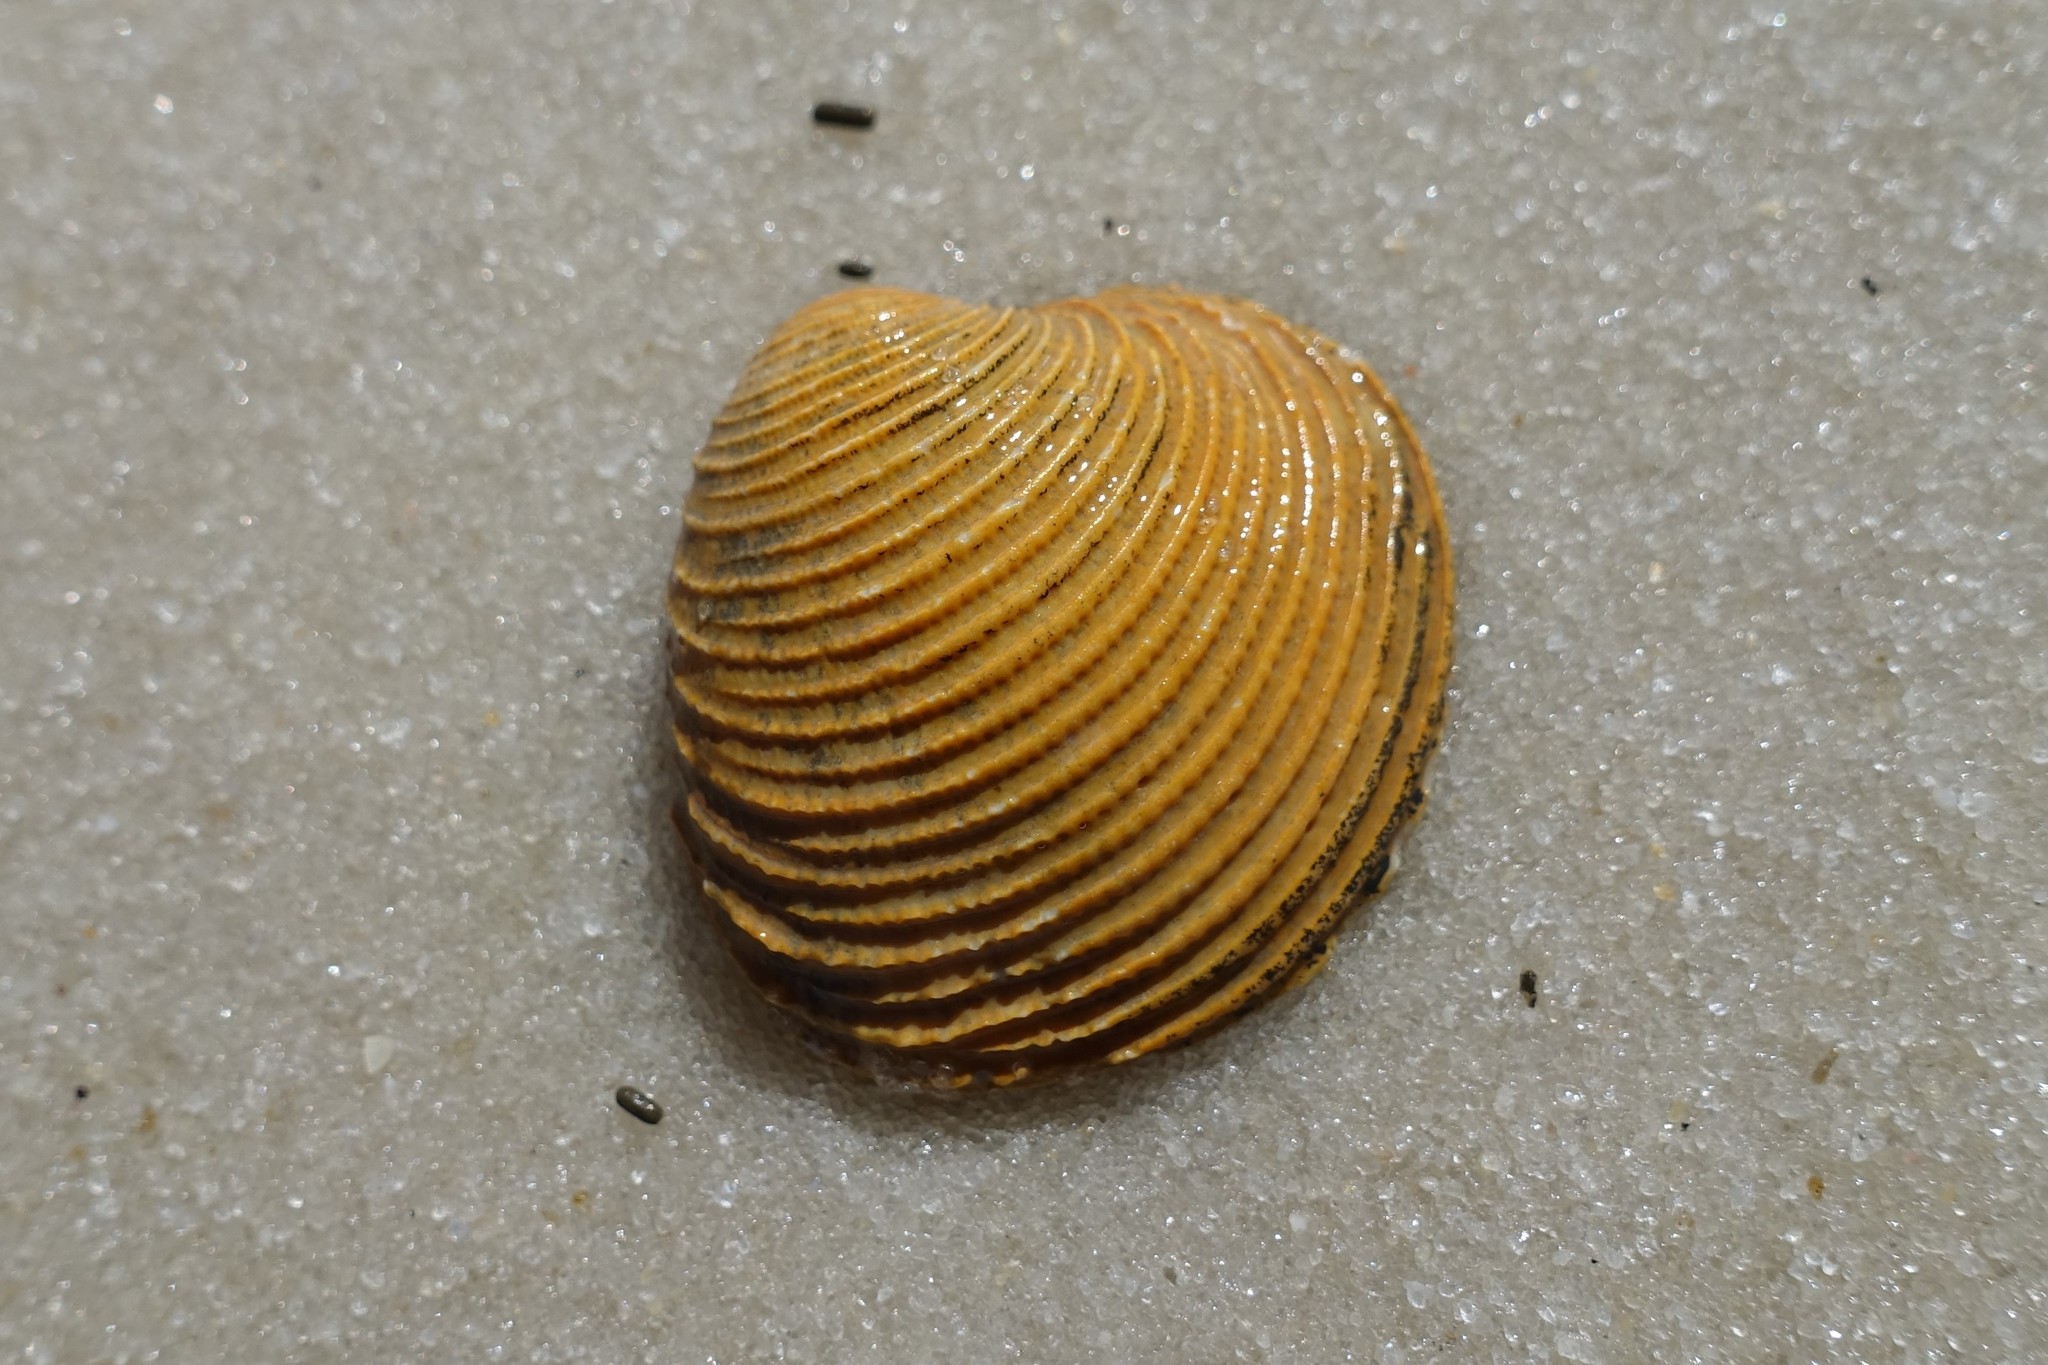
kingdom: Animalia
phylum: Mollusca
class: Bivalvia
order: Venerida
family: Veneridae
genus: Chionopsis
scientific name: Chionopsis intapurpurea
